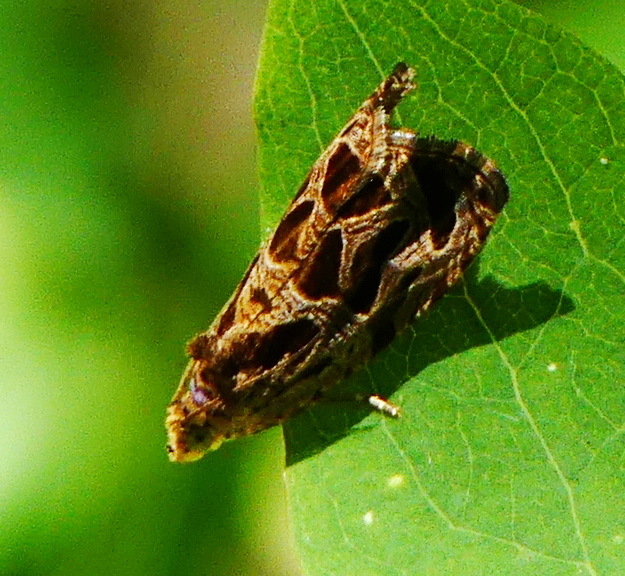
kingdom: Animalia
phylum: Arthropoda
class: Insecta
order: Lepidoptera
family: Tortricidae
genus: Olethreutes
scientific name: Olethreutes tilianum
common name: Basswood olethreutes moth
